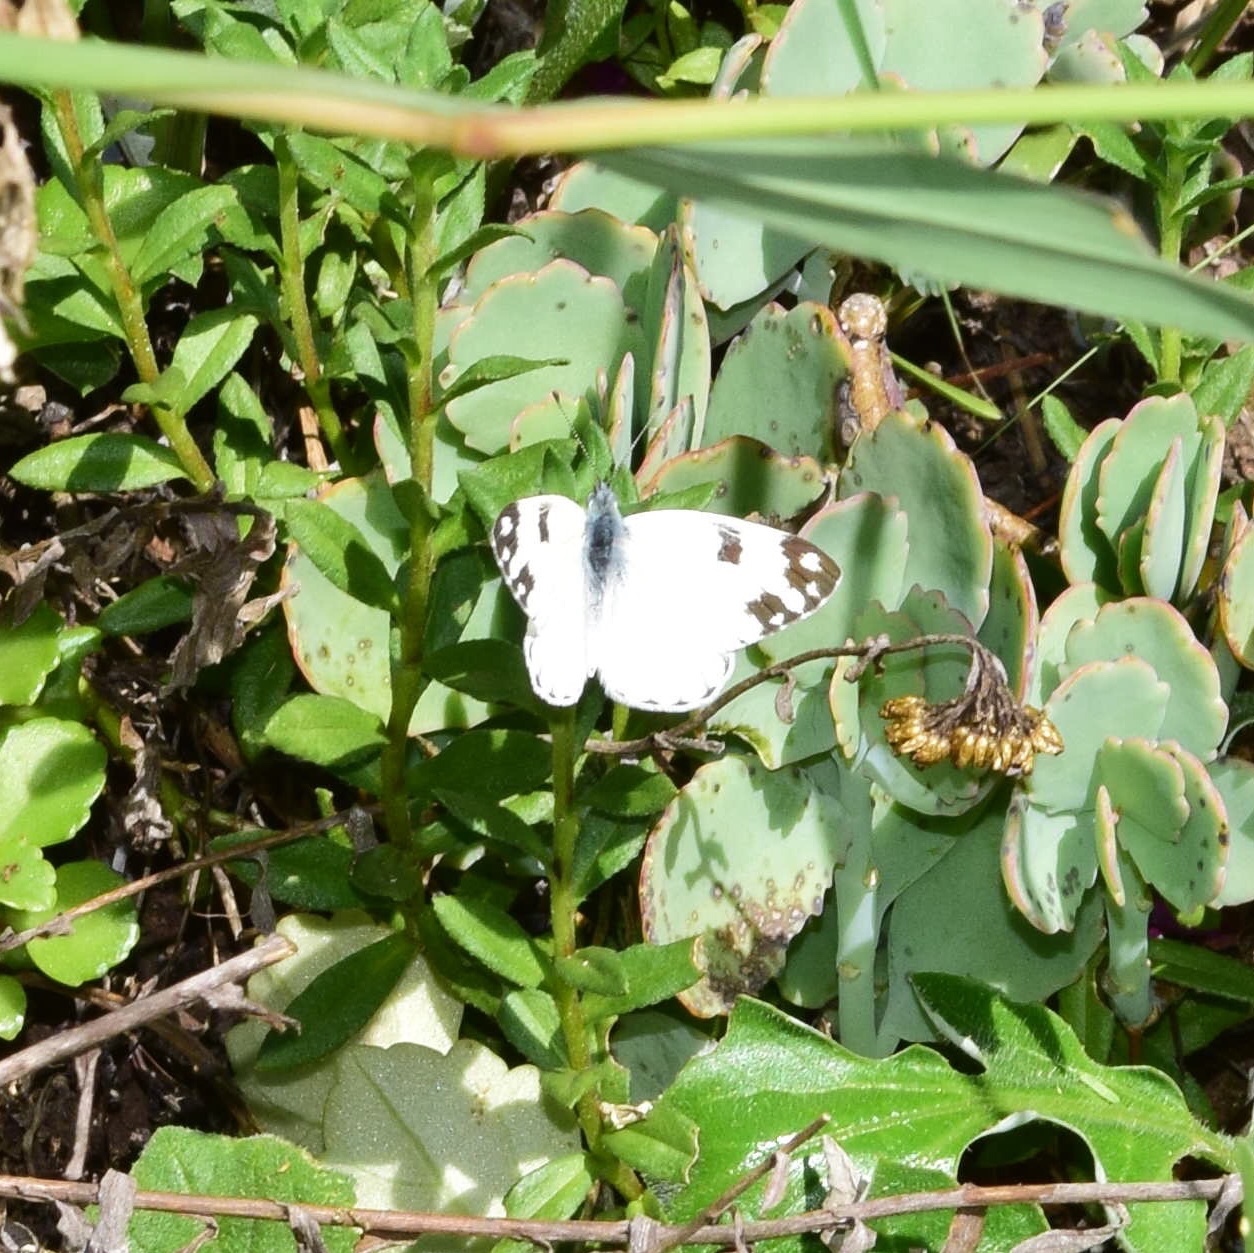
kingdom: Animalia
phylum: Arthropoda
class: Insecta
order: Lepidoptera
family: Pieridae
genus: Pontia
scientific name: Pontia helice
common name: Meadow white
